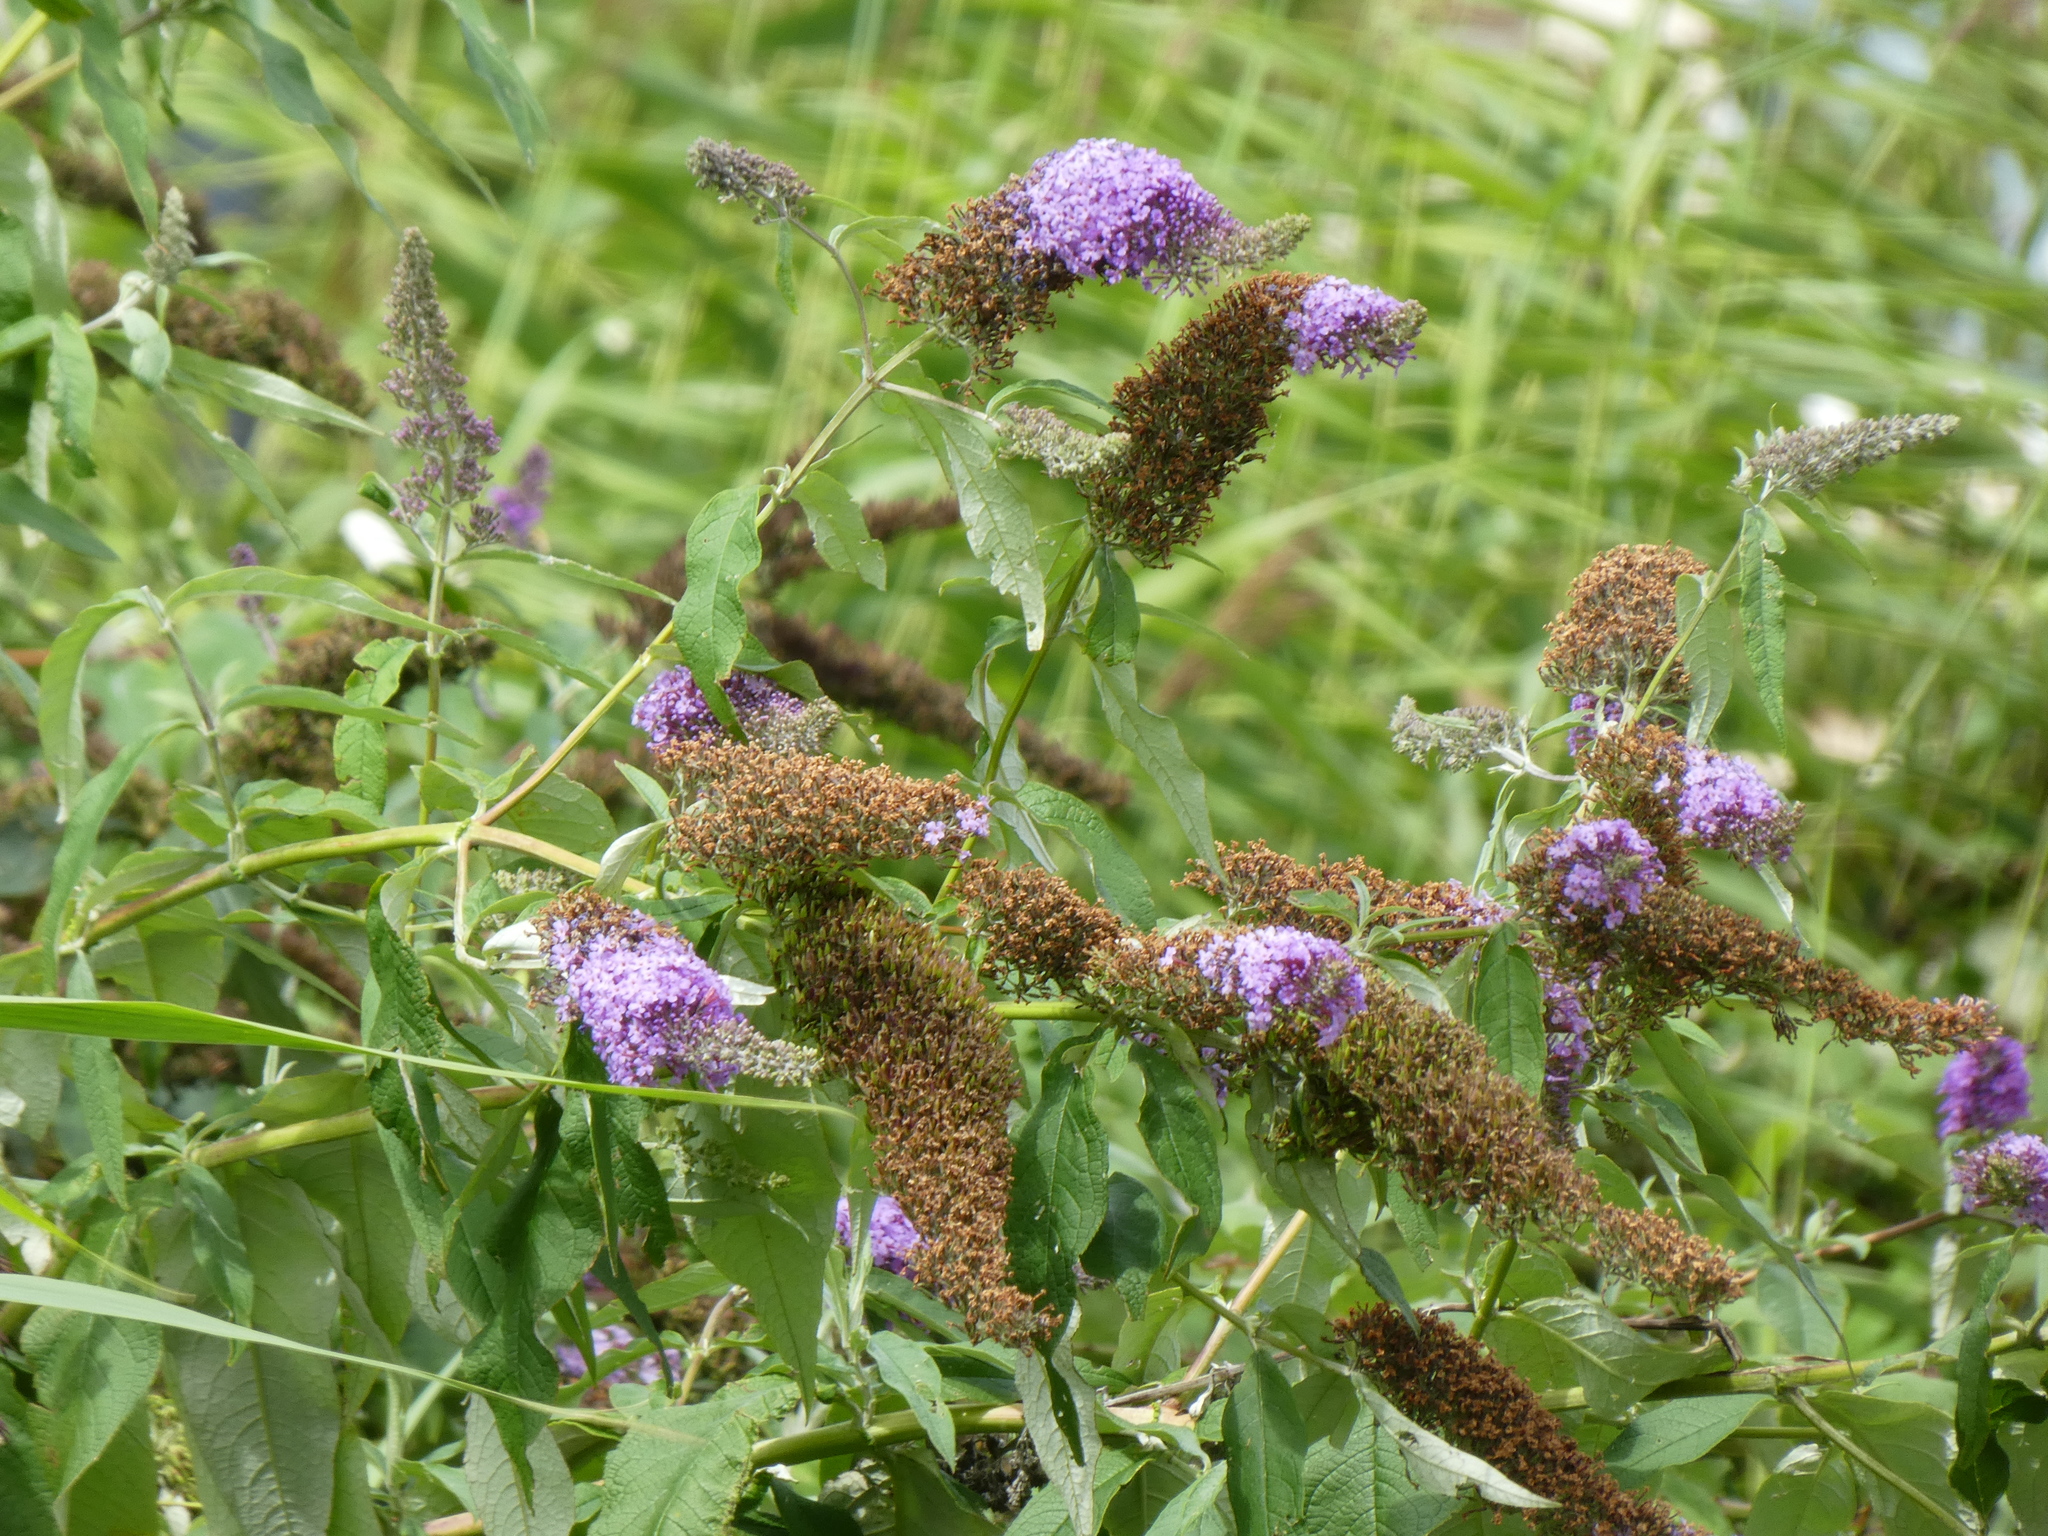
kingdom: Plantae
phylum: Tracheophyta
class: Magnoliopsida
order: Lamiales
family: Scrophulariaceae
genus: Buddleja
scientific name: Buddleja davidii
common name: Butterfly-bush
